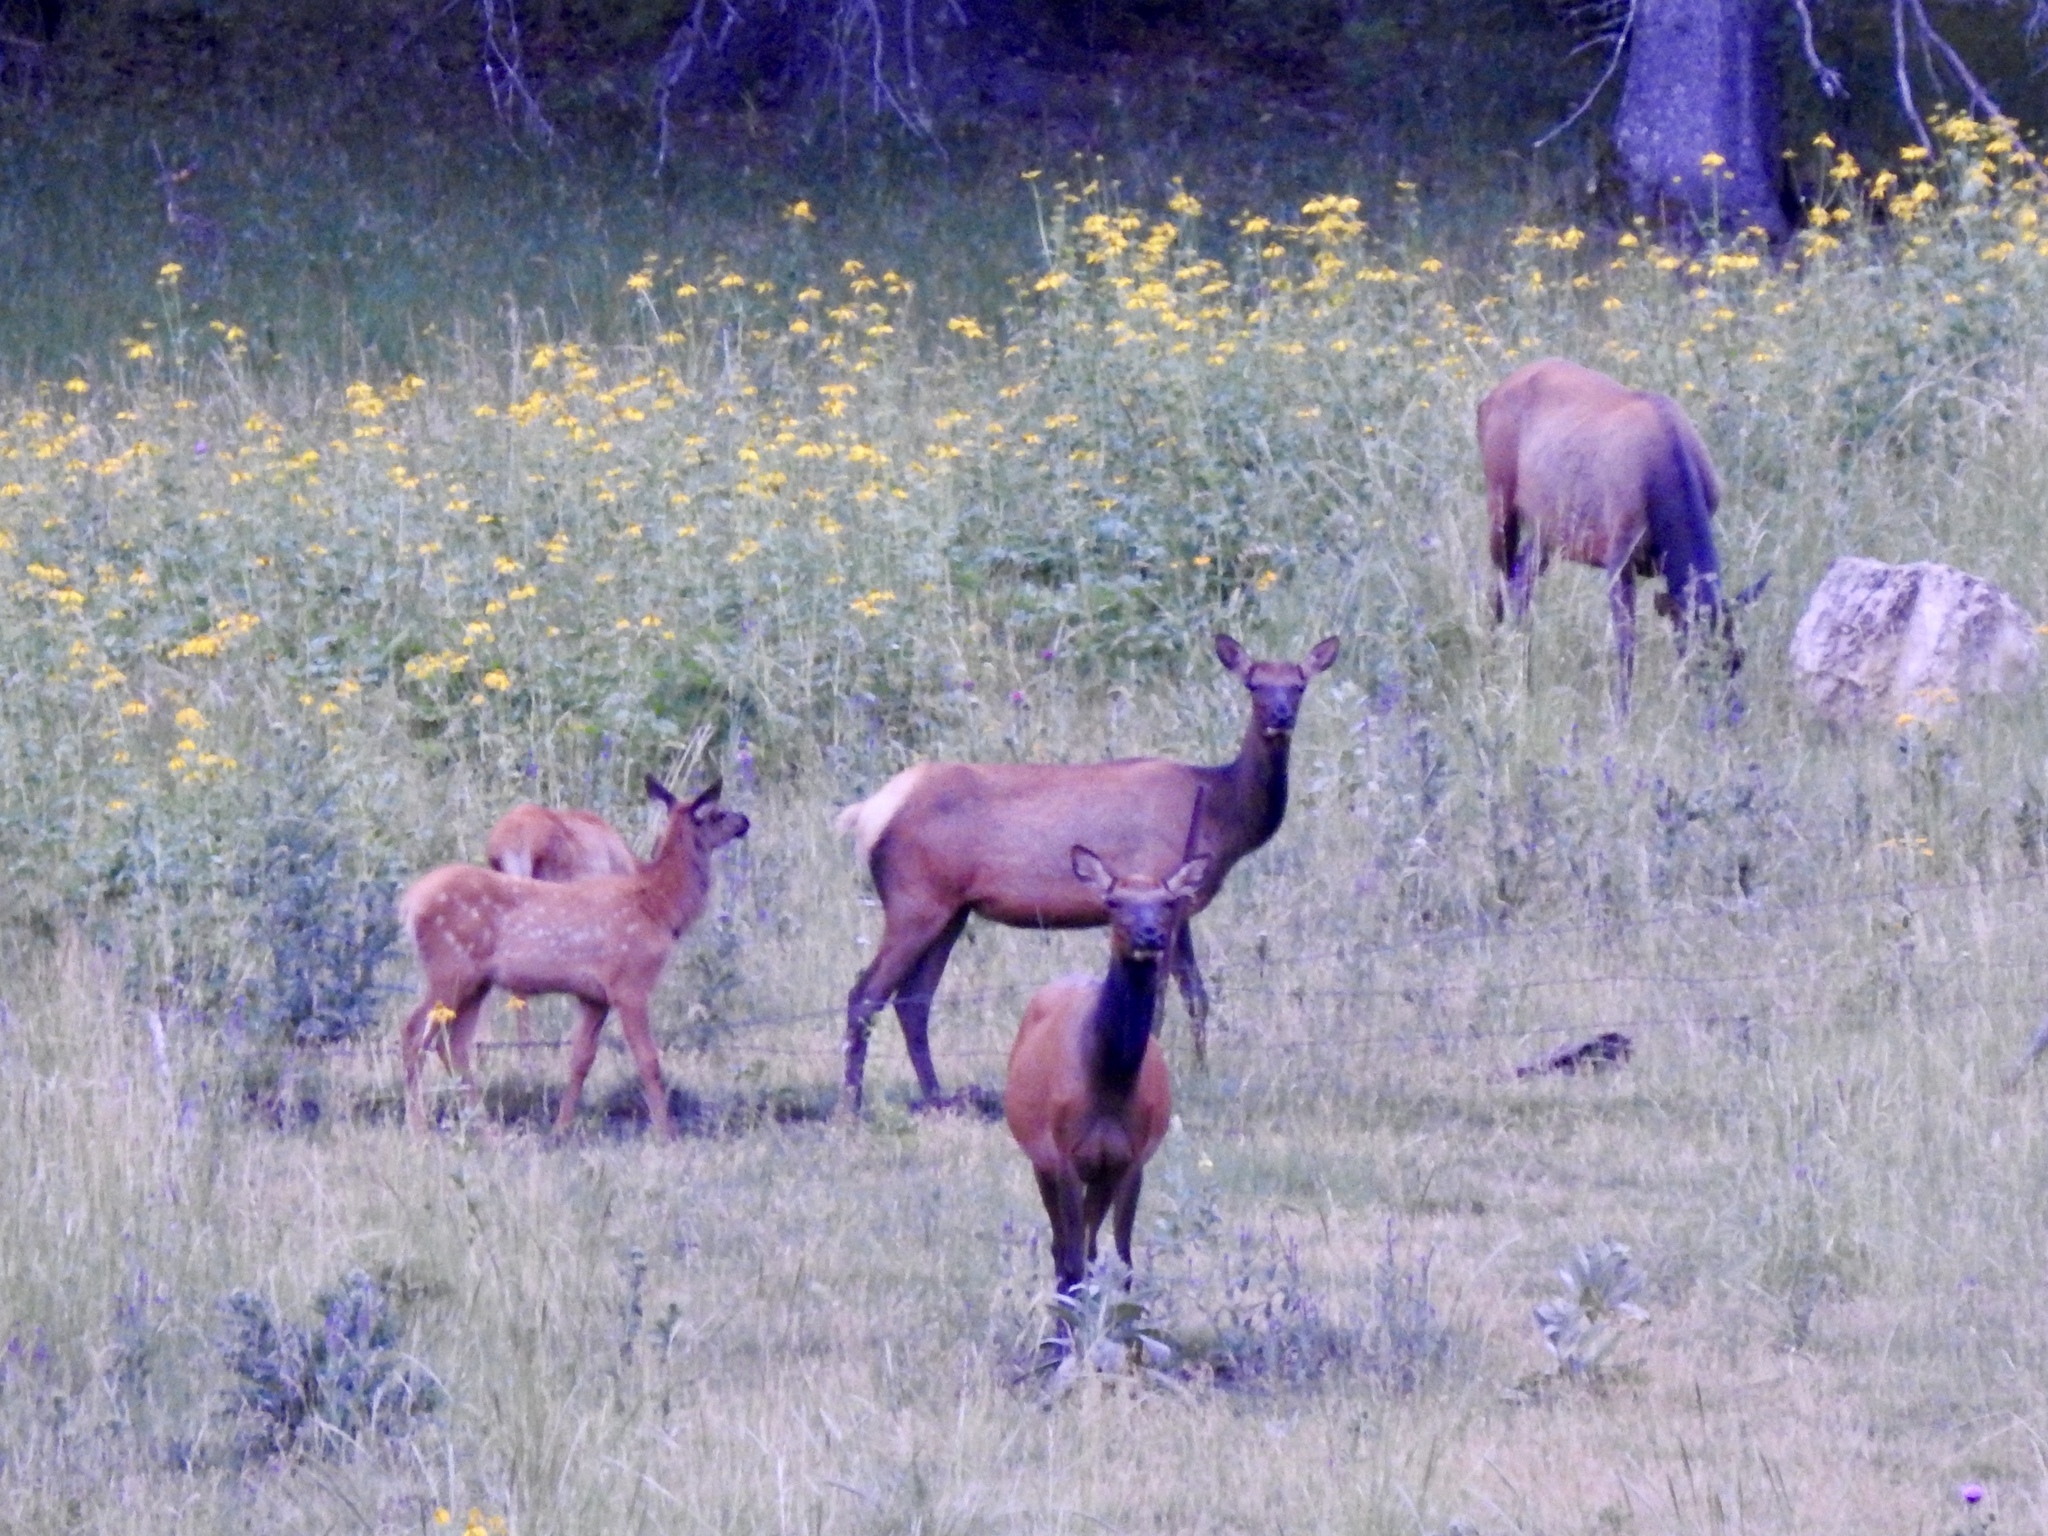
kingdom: Animalia
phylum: Chordata
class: Mammalia
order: Artiodactyla
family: Cervidae
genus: Cervus
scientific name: Cervus elaphus
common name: Red deer
